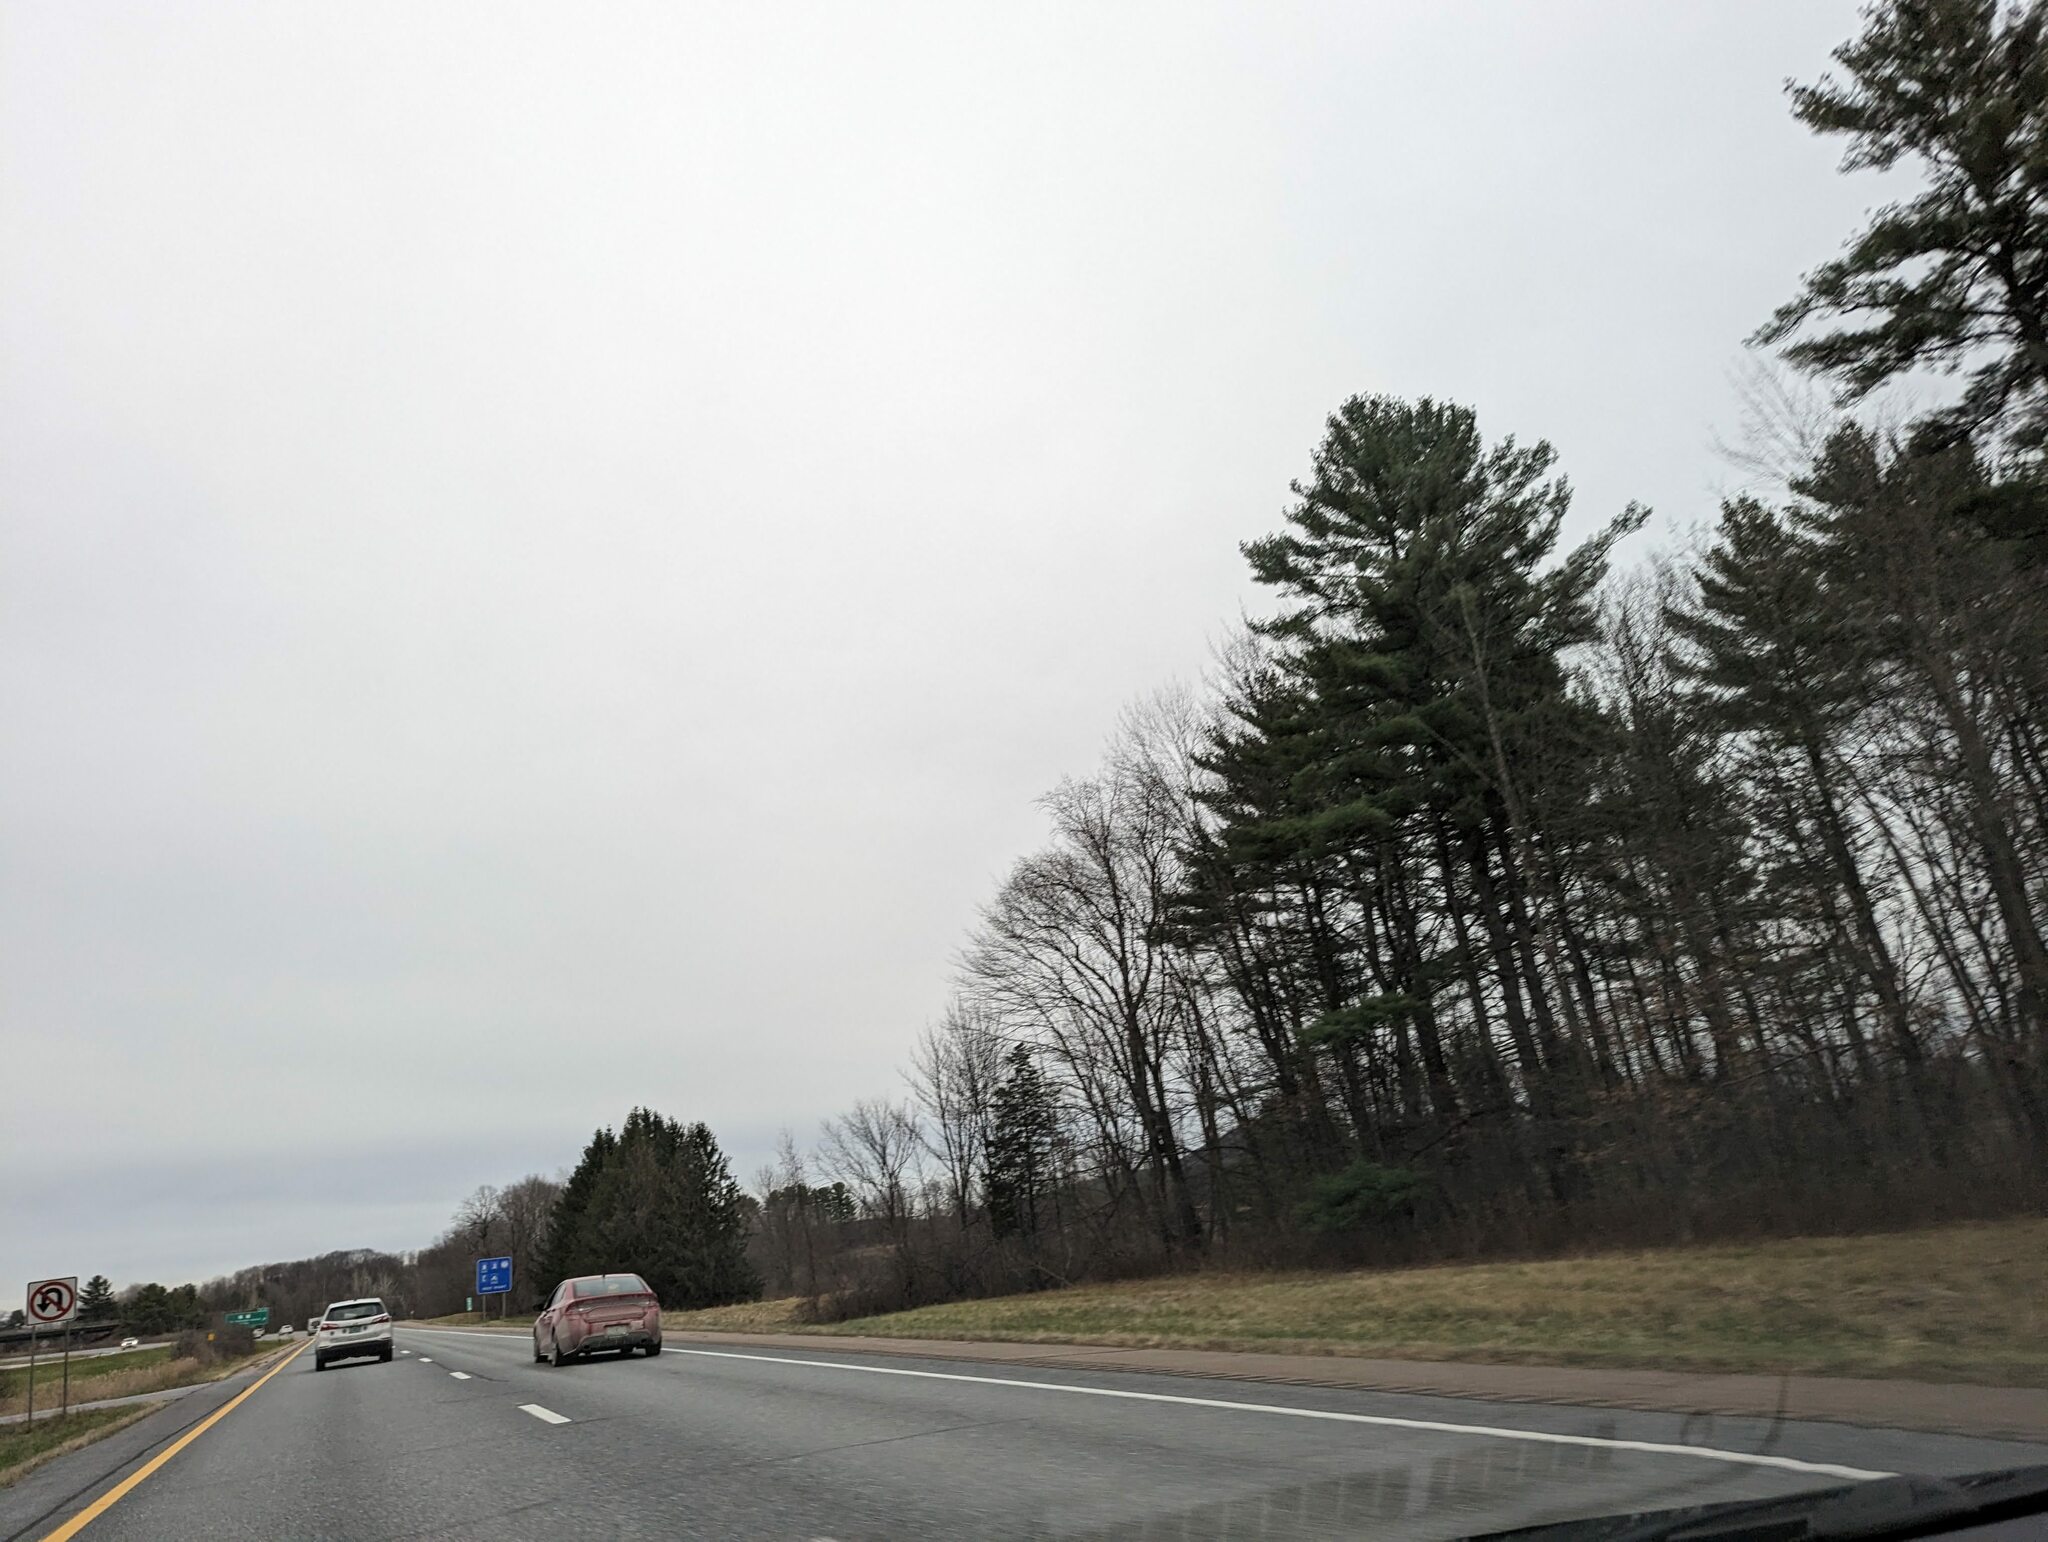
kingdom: Plantae
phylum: Tracheophyta
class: Pinopsida
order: Pinales
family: Pinaceae
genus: Pinus
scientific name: Pinus strobus
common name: Weymouth pine
